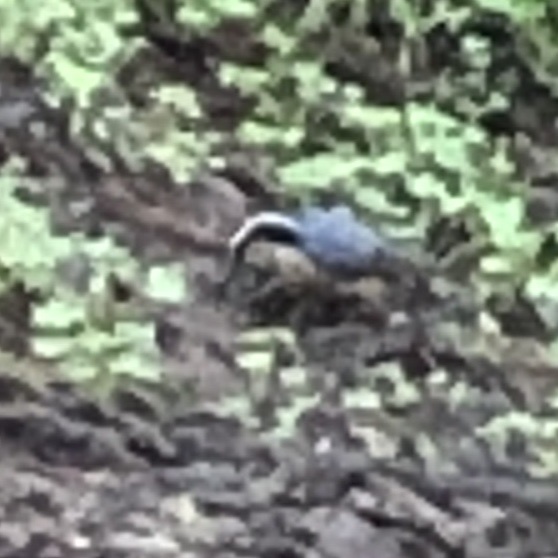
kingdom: Animalia
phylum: Chordata
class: Aves
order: Passeriformes
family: Sittidae
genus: Sitta
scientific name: Sitta canadensis
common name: Red-breasted nuthatch
